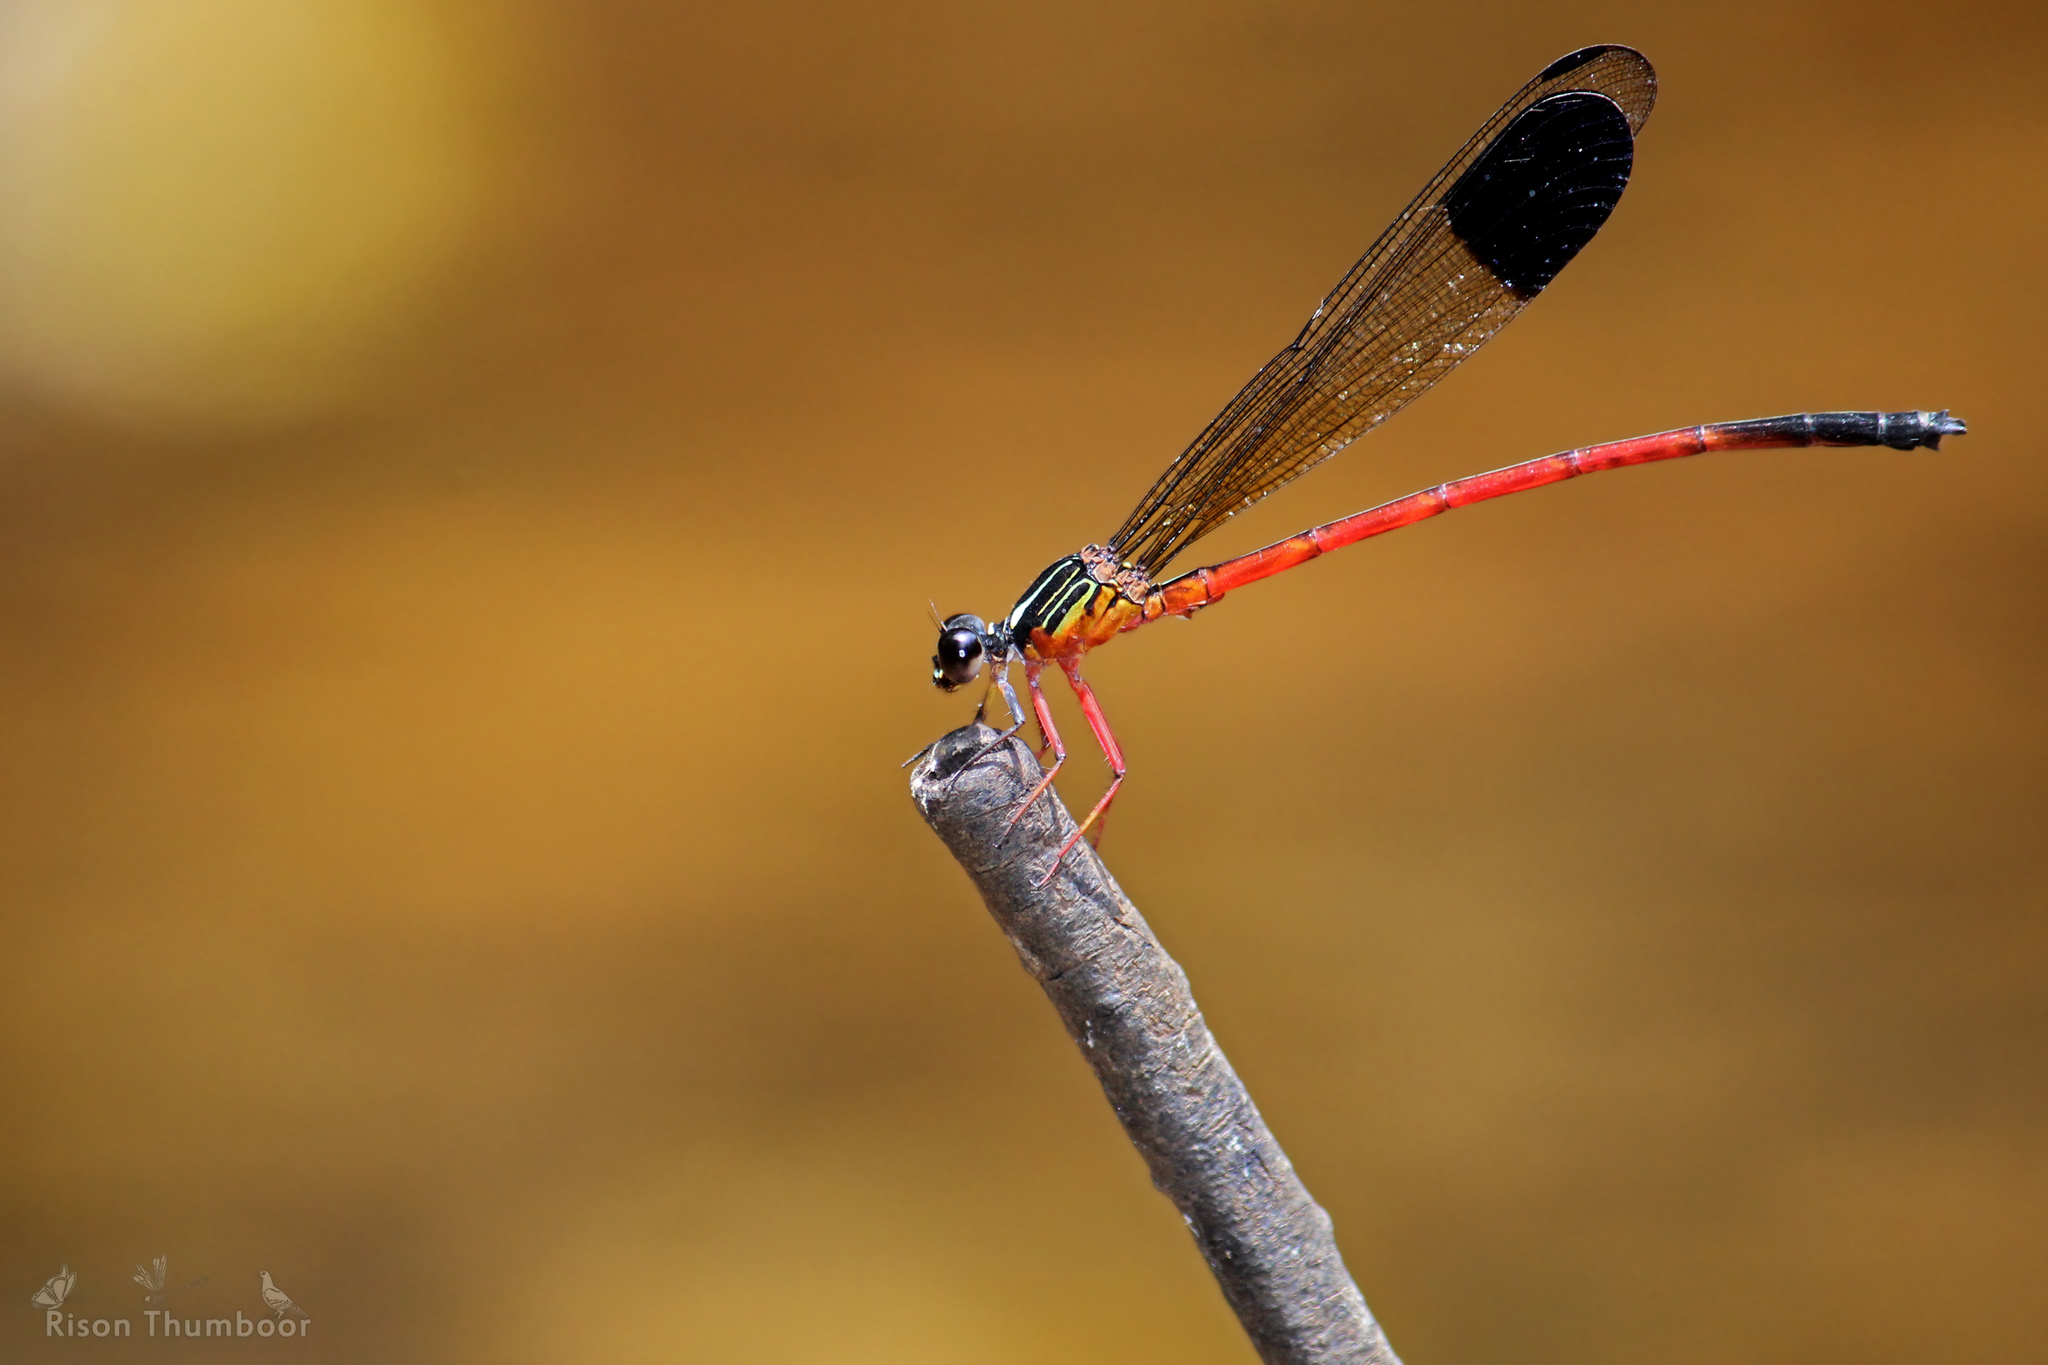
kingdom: Animalia
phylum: Arthropoda
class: Insecta
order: Odonata
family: Euphaeidae
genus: Euphaea
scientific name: Euphaea fraseri
